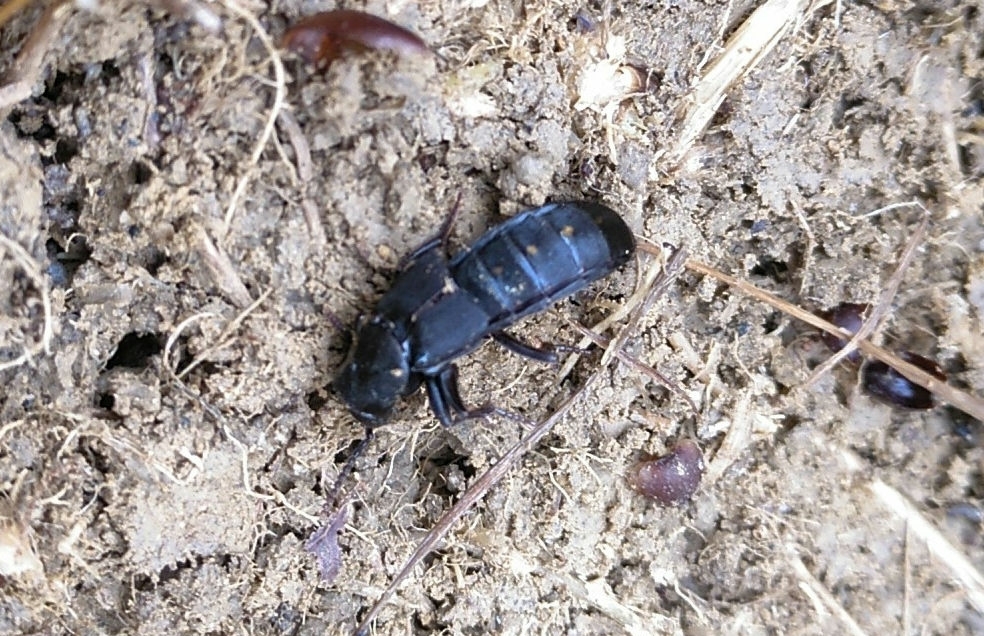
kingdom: Animalia
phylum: Arthropoda
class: Insecta
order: Coleoptera
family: Staphylinidae
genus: Ocypus
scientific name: Ocypus olens
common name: Devil's coach-horse
